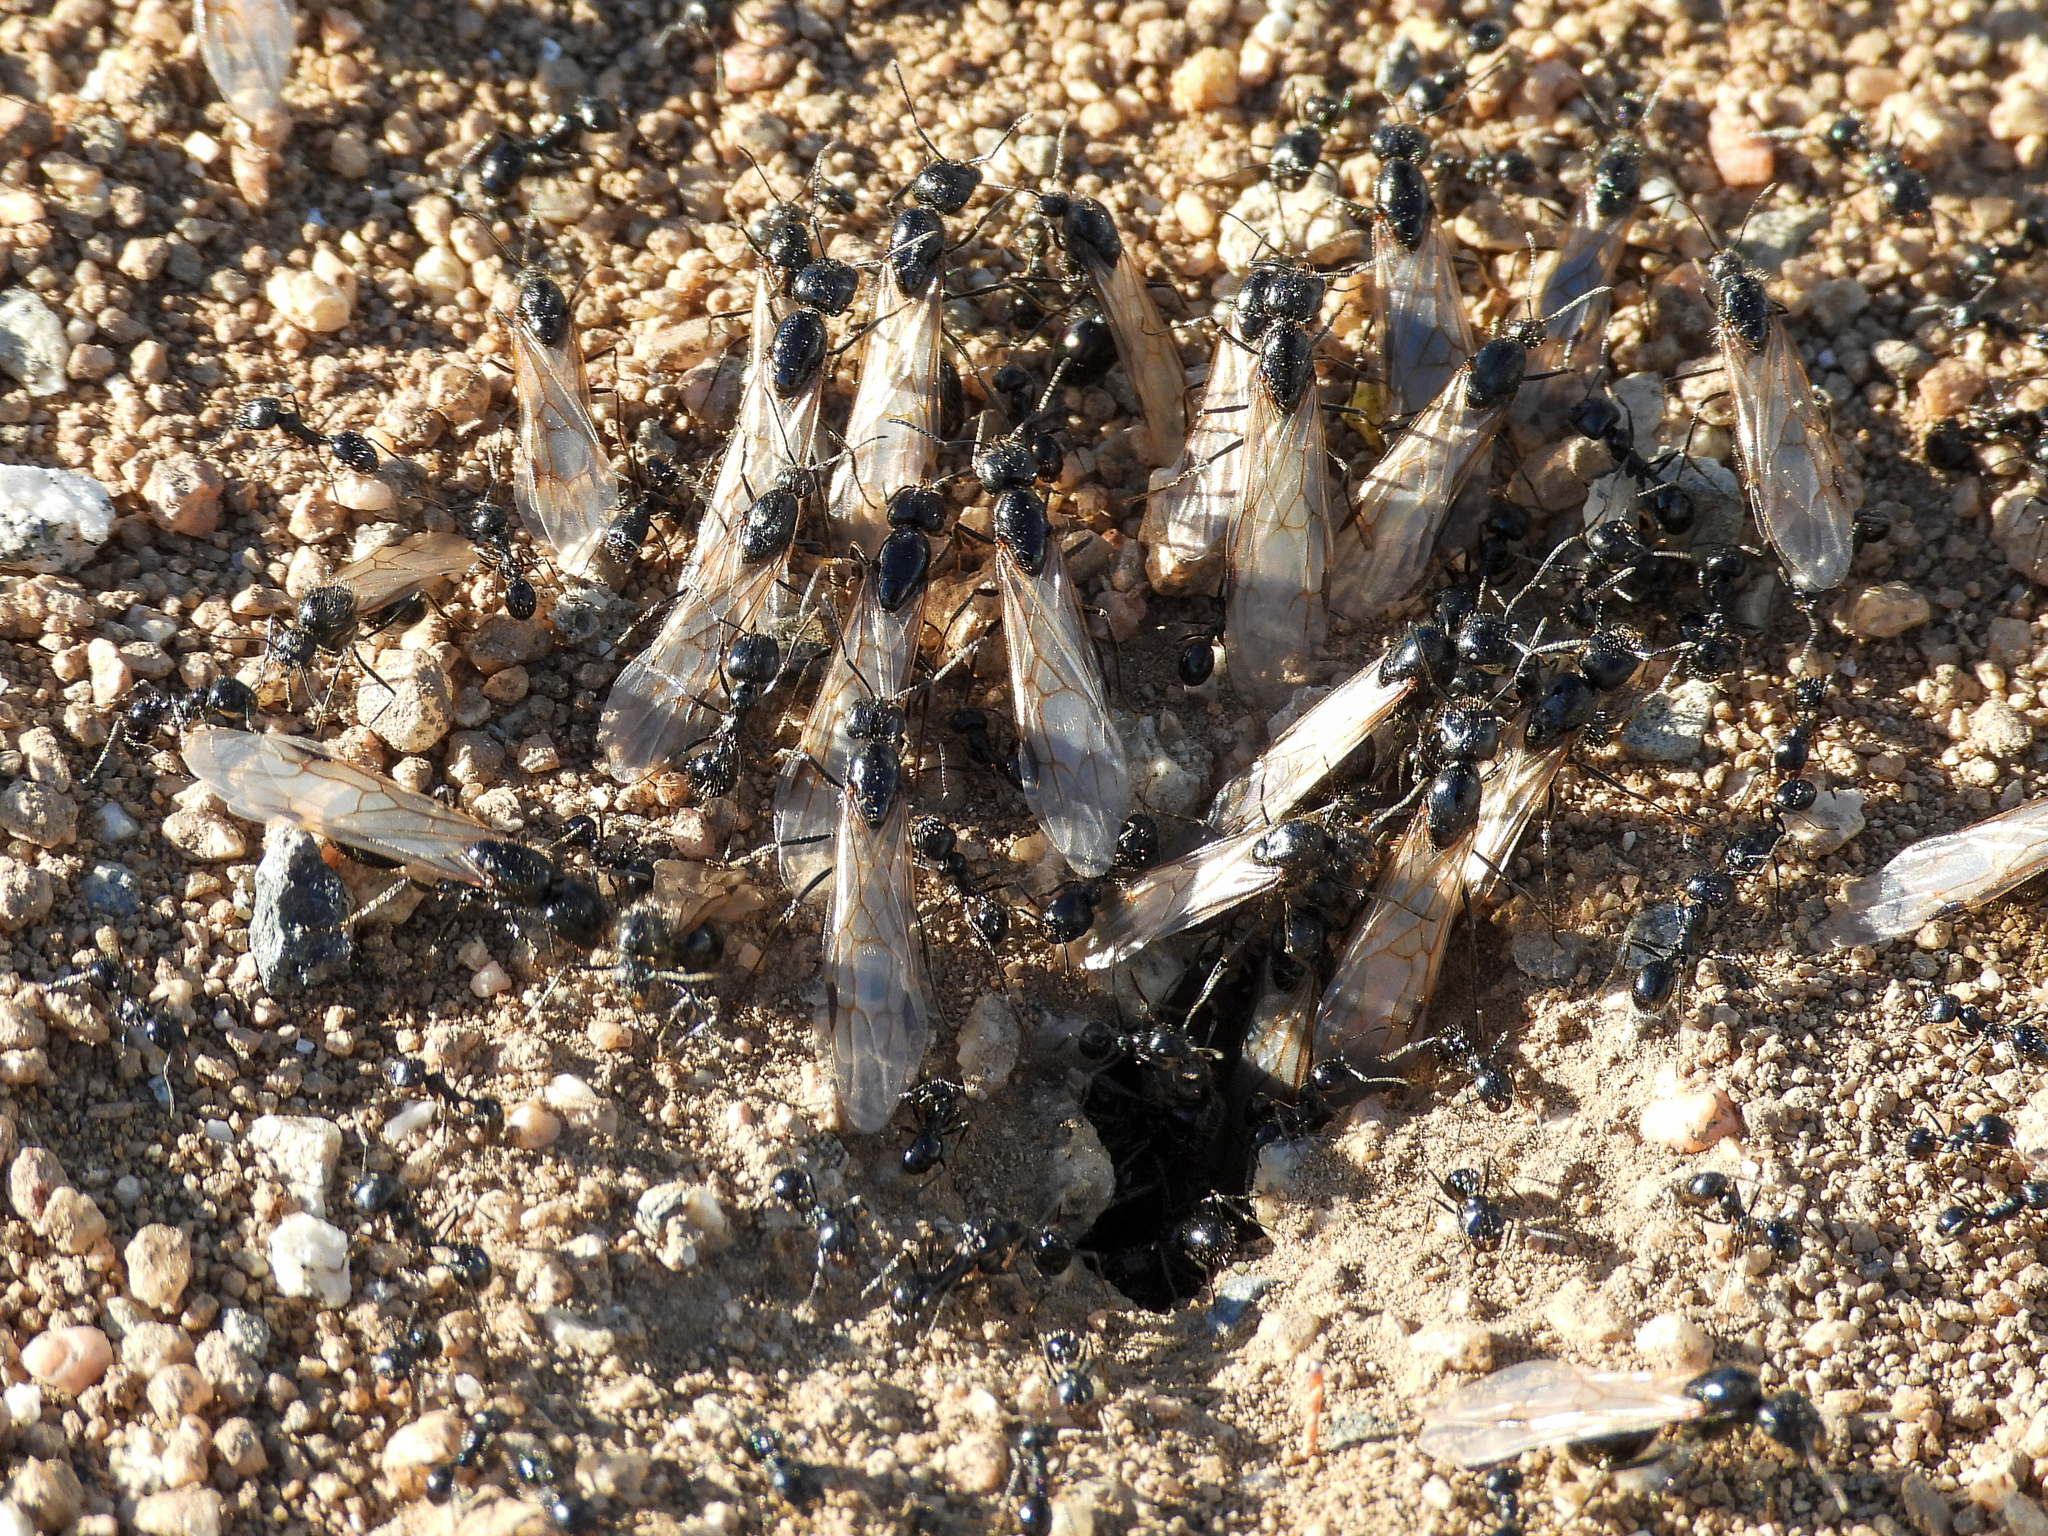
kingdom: Animalia
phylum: Arthropoda
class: Insecta
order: Hymenoptera
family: Formicidae
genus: Messor
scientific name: Messor pergandei
